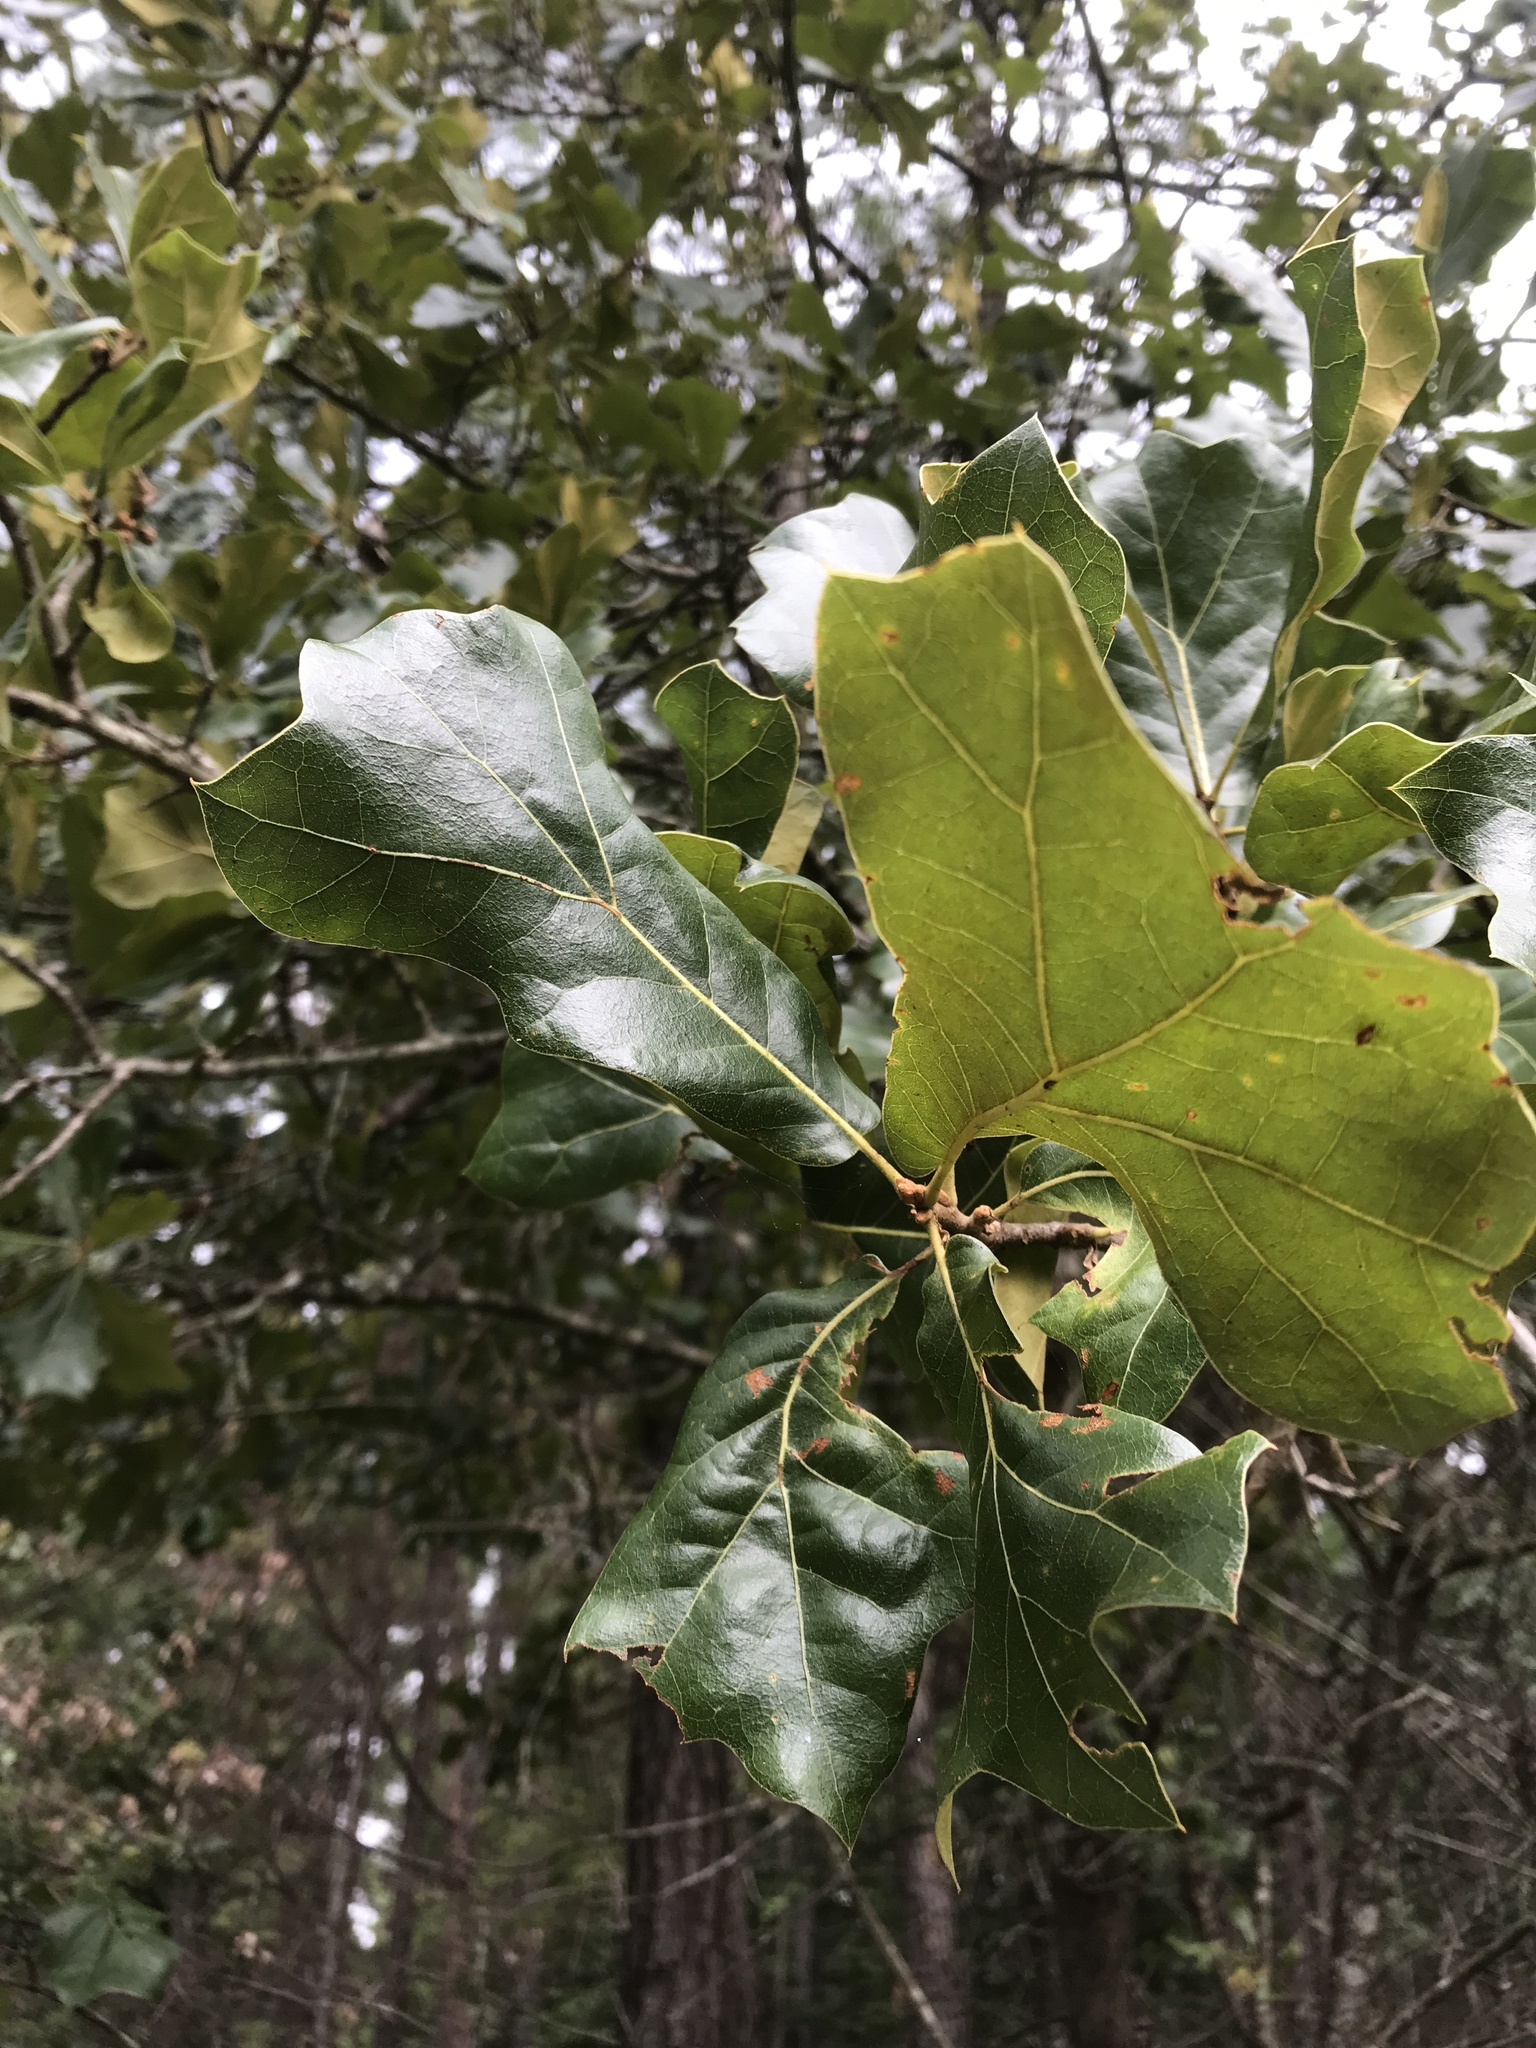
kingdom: Plantae
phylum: Tracheophyta
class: Magnoliopsida
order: Fagales
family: Fagaceae
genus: Quercus
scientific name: Quercus marilandica
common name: Blackjack oak
